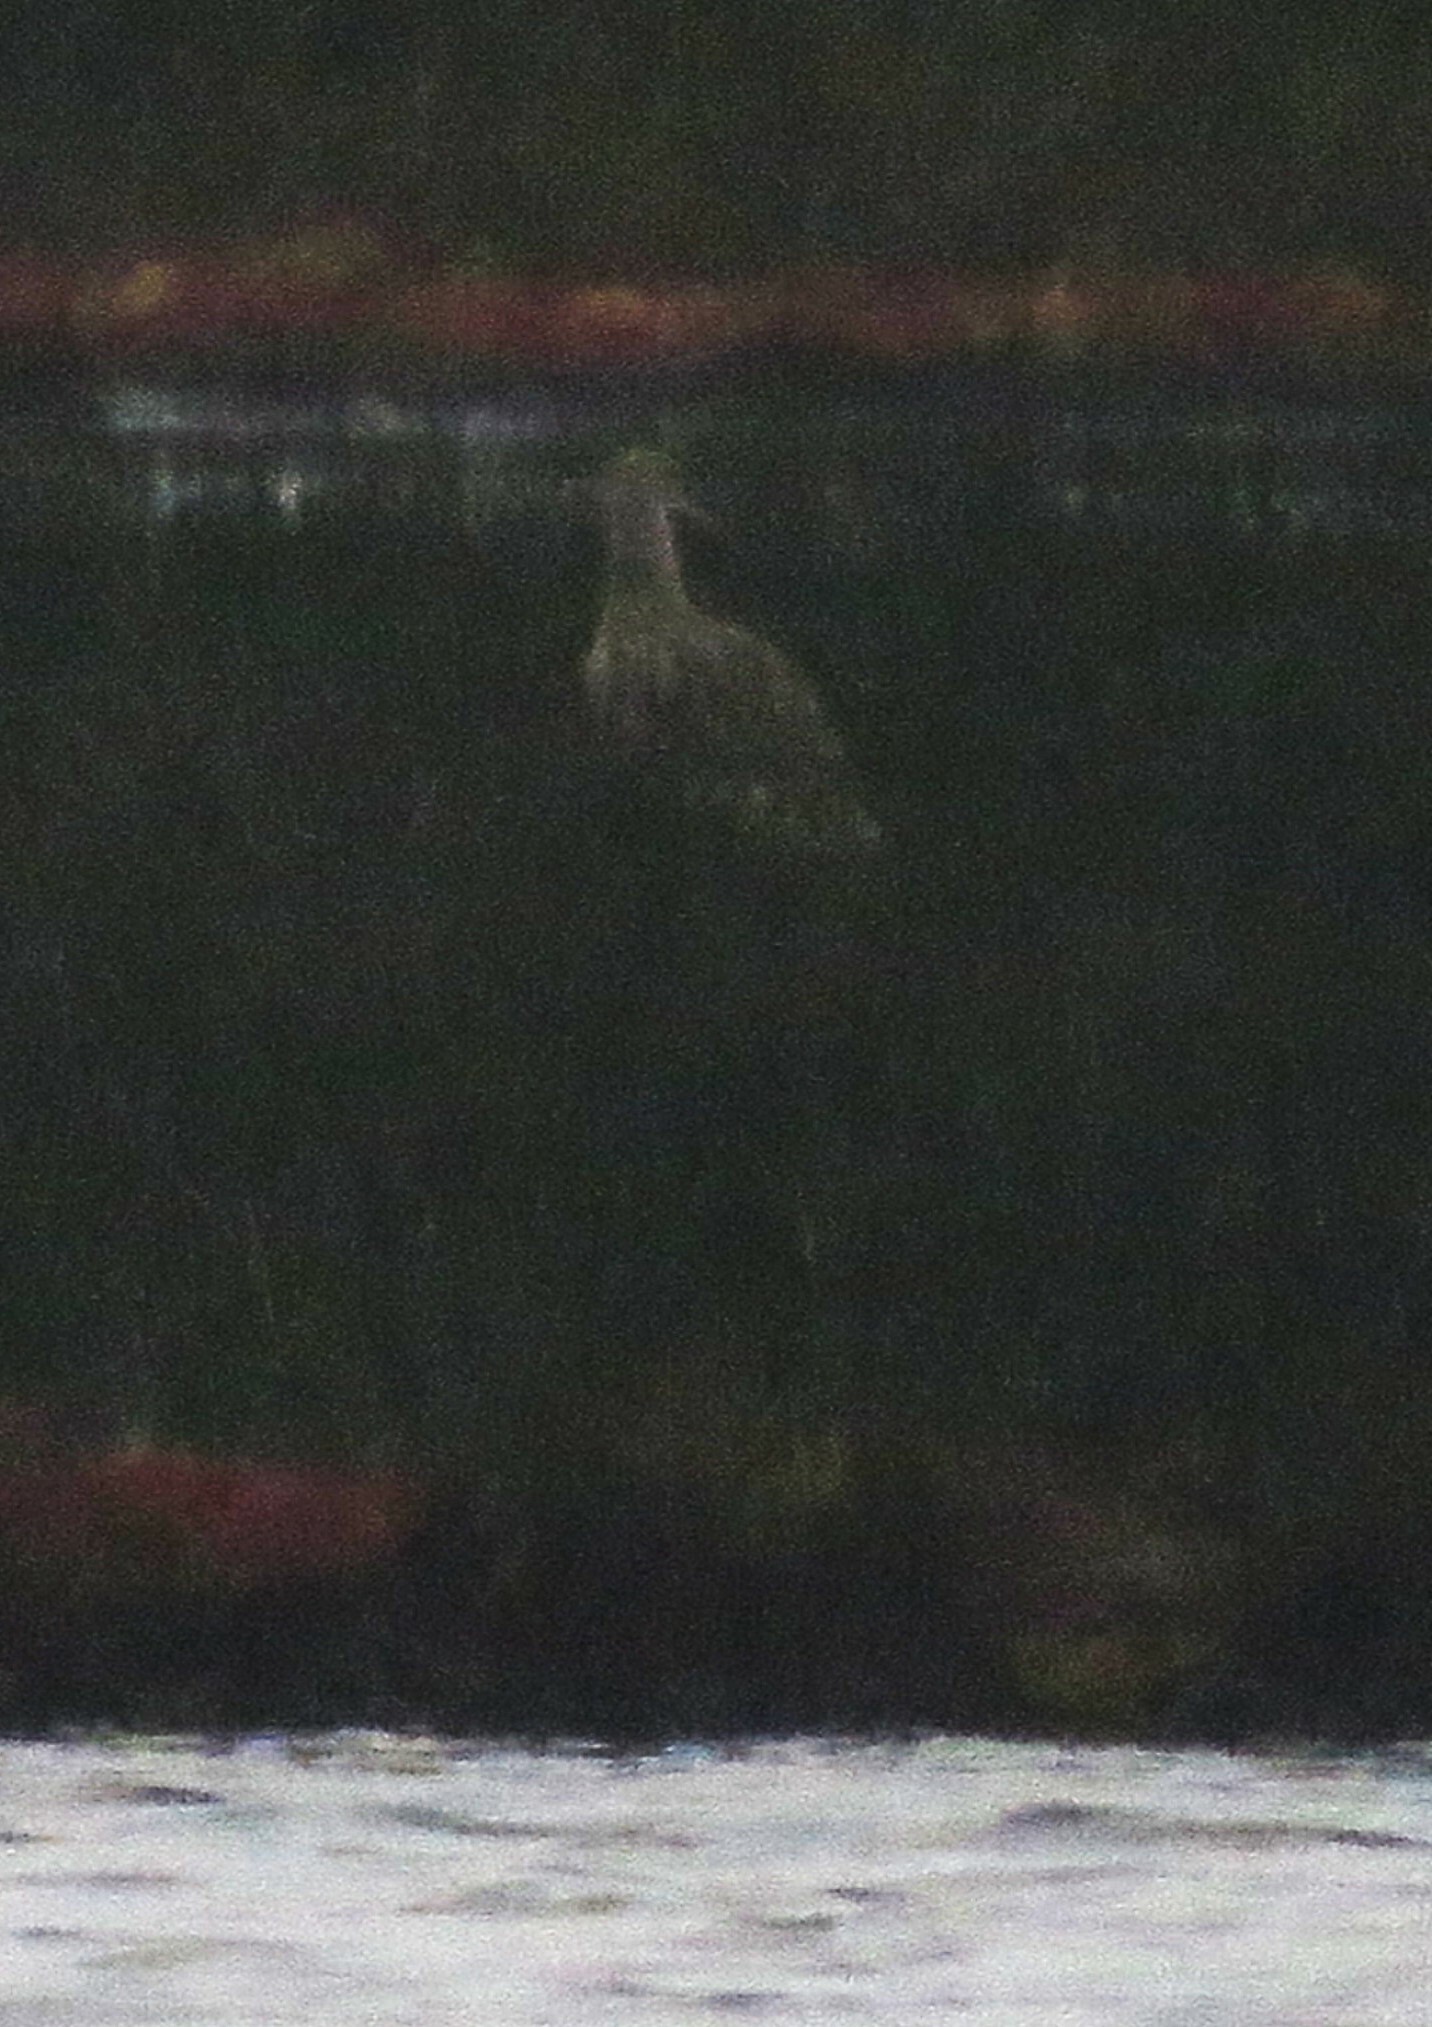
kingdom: Animalia
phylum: Chordata
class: Aves
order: Charadriiformes
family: Scolopacidae
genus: Numenius
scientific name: Numenius arquata
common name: Eurasian curlew
